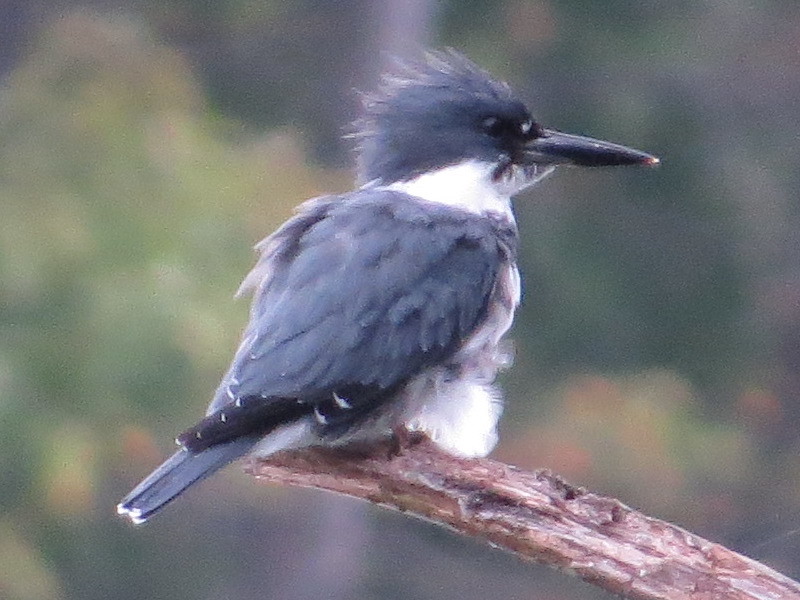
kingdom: Animalia
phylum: Chordata
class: Aves
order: Coraciiformes
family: Alcedinidae
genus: Megaceryle
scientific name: Megaceryle alcyon
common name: Belted kingfisher
